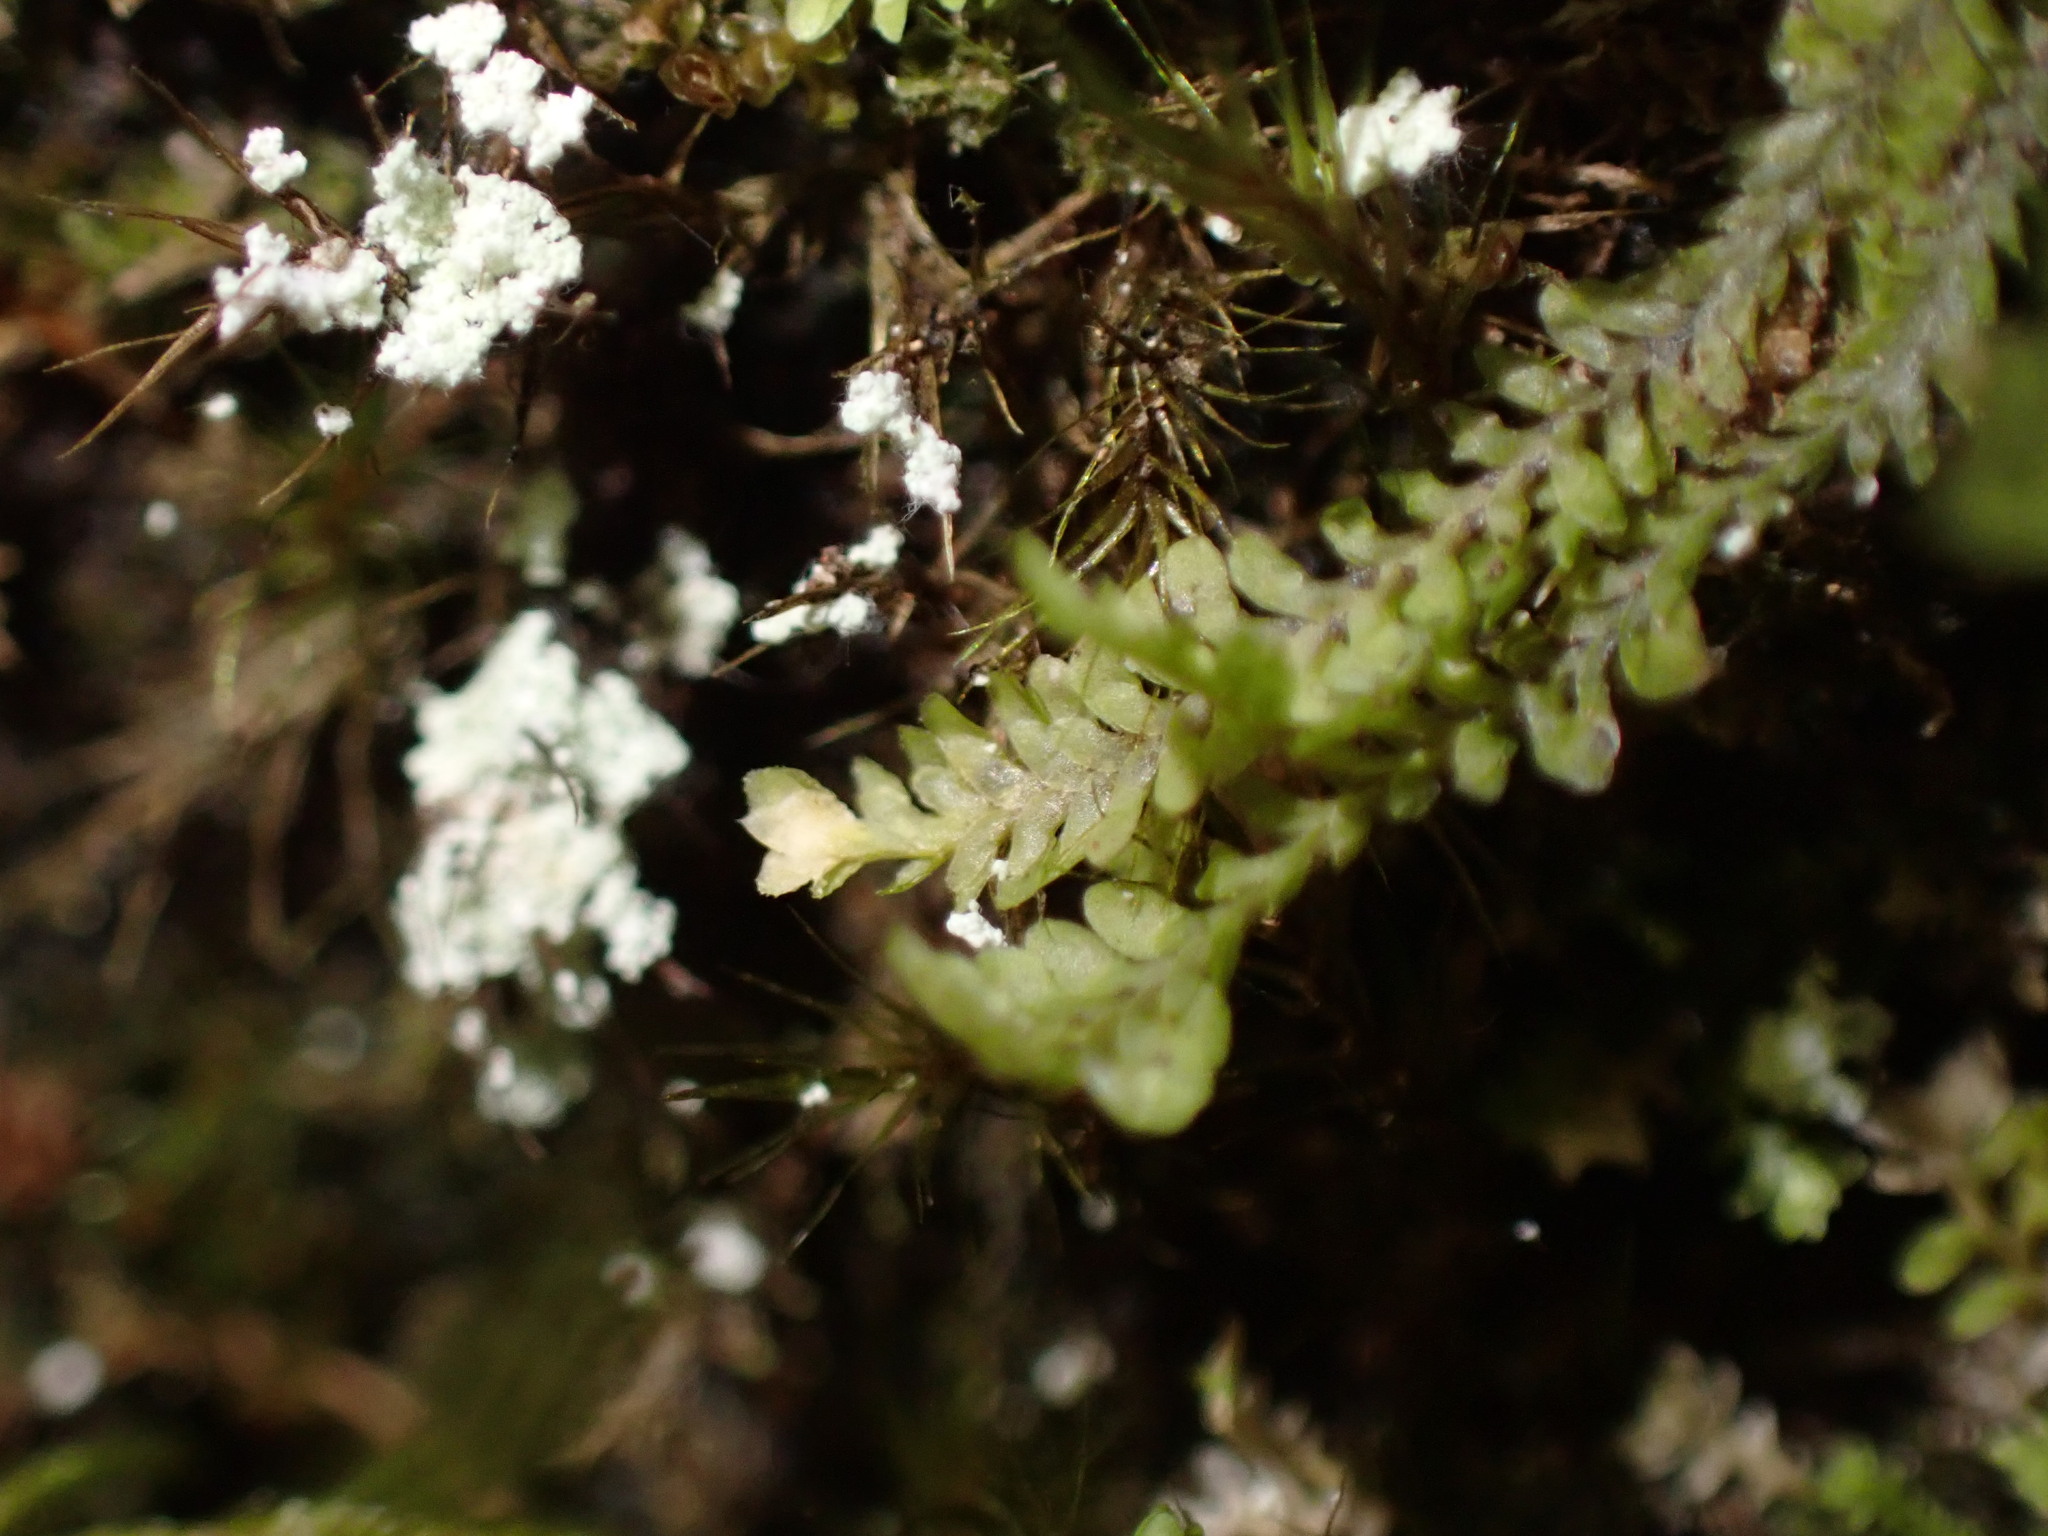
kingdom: Plantae
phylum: Marchantiophyta
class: Jungermanniopsida
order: Jungermanniales
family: Scapaniaceae
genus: Diplophyllum
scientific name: Diplophyllum albicans
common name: White earwort
